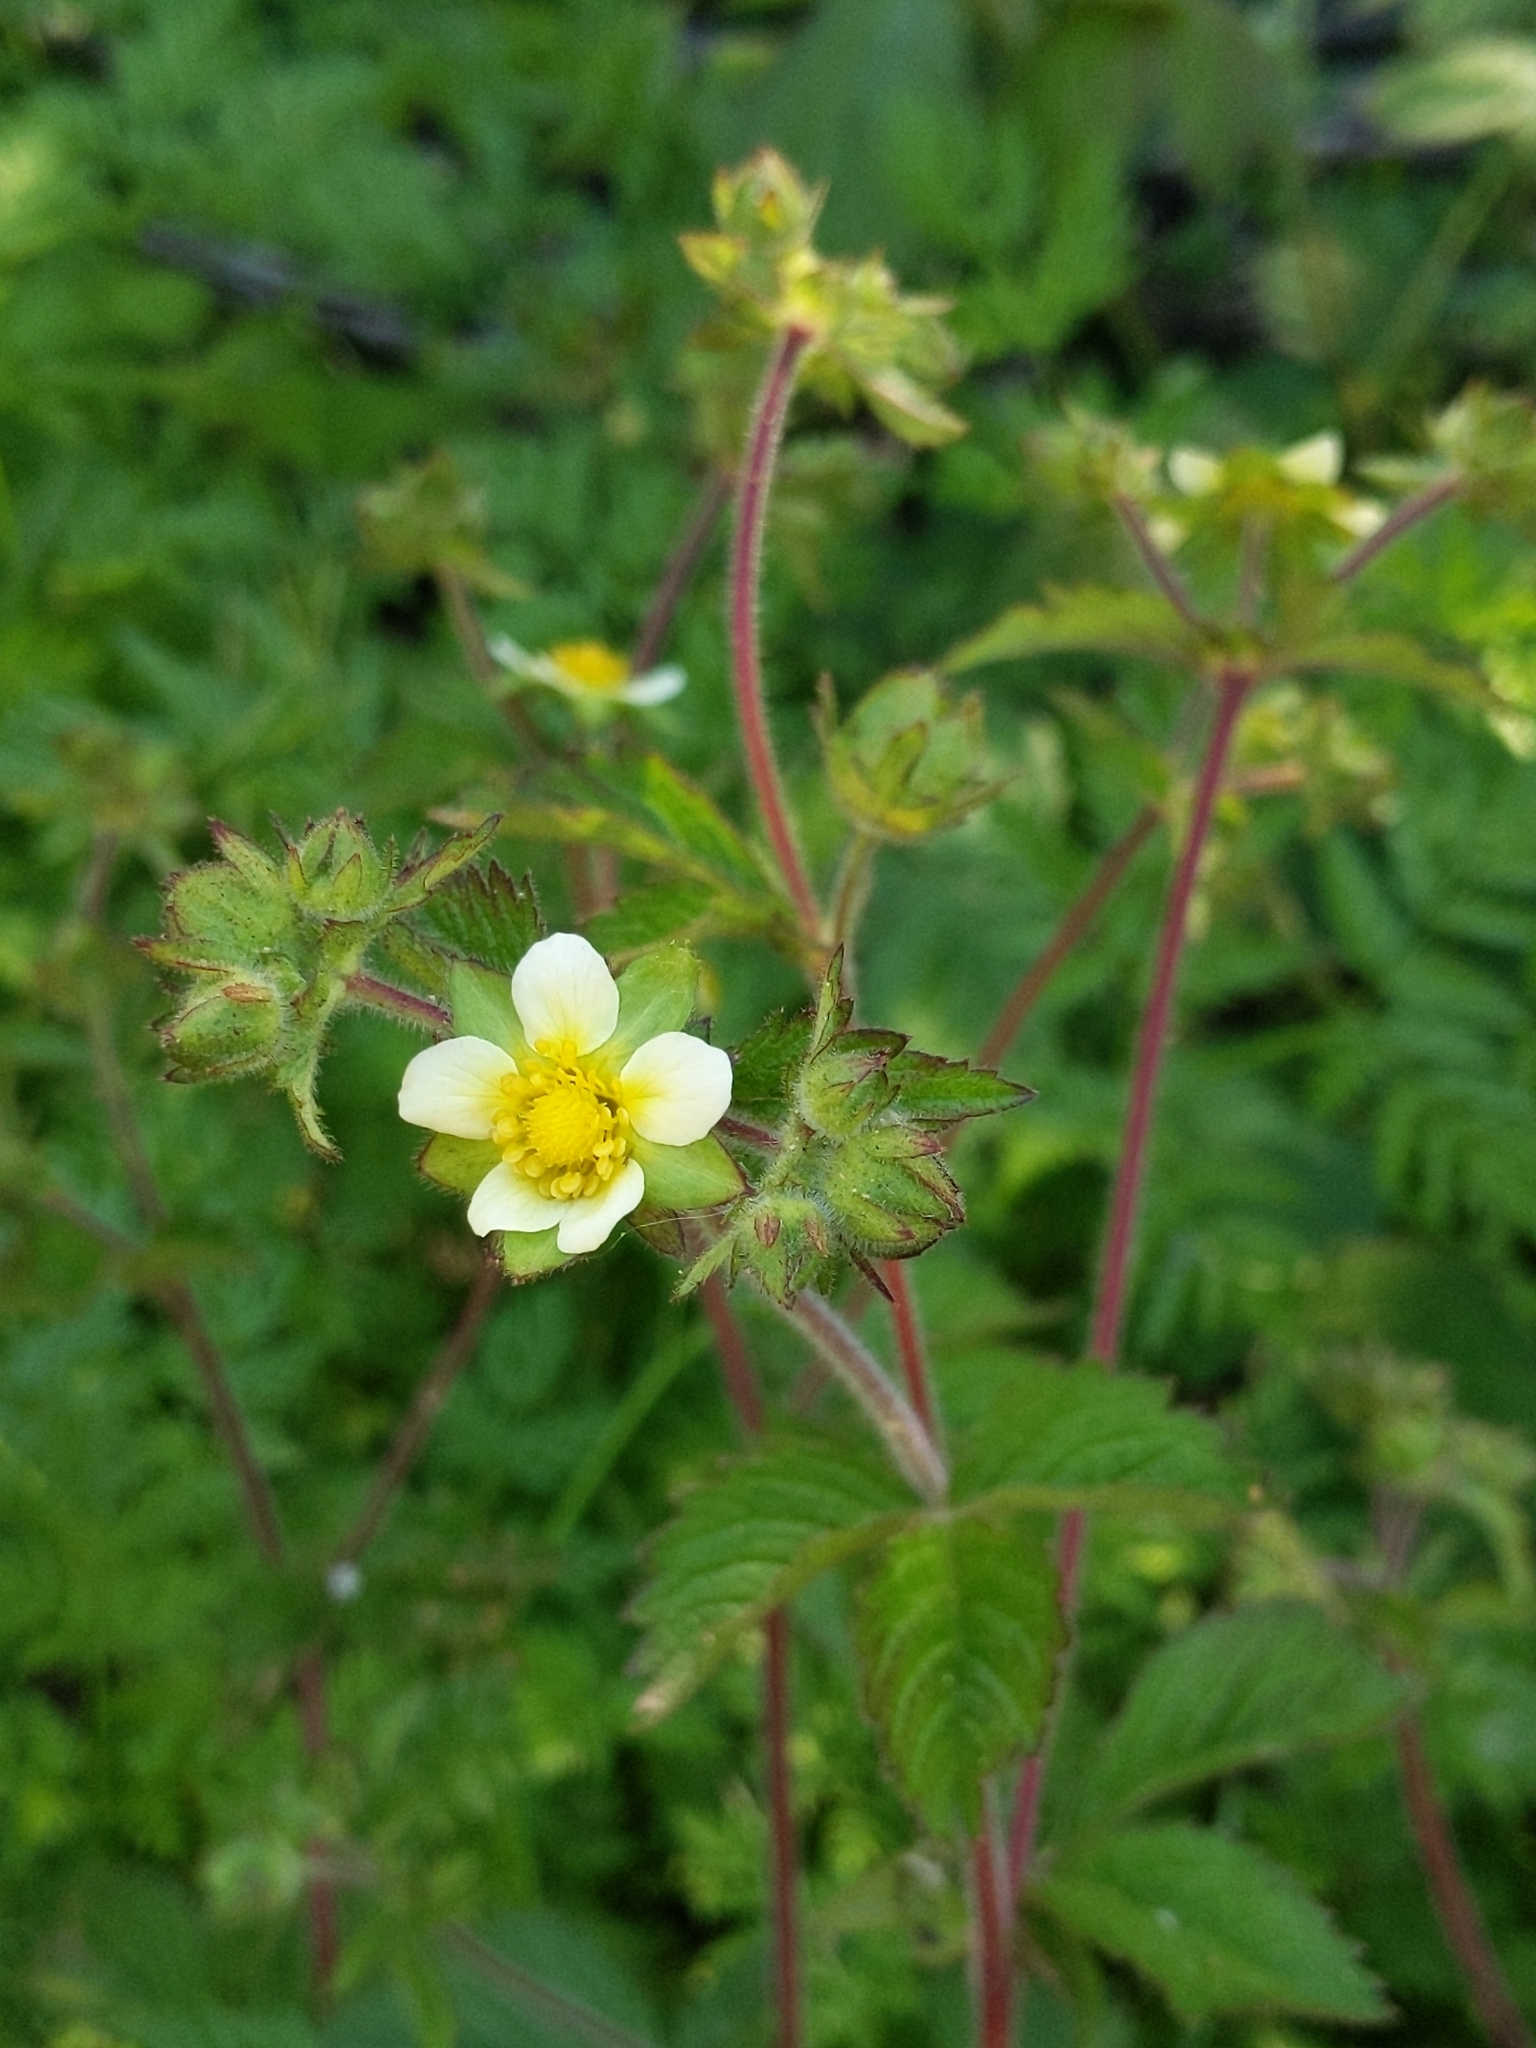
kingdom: Plantae
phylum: Tracheophyta
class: Magnoliopsida
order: Rosales
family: Rosaceae
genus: Drymocallis
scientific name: Drymocallis glandulosa
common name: Sticky cinquefoil
